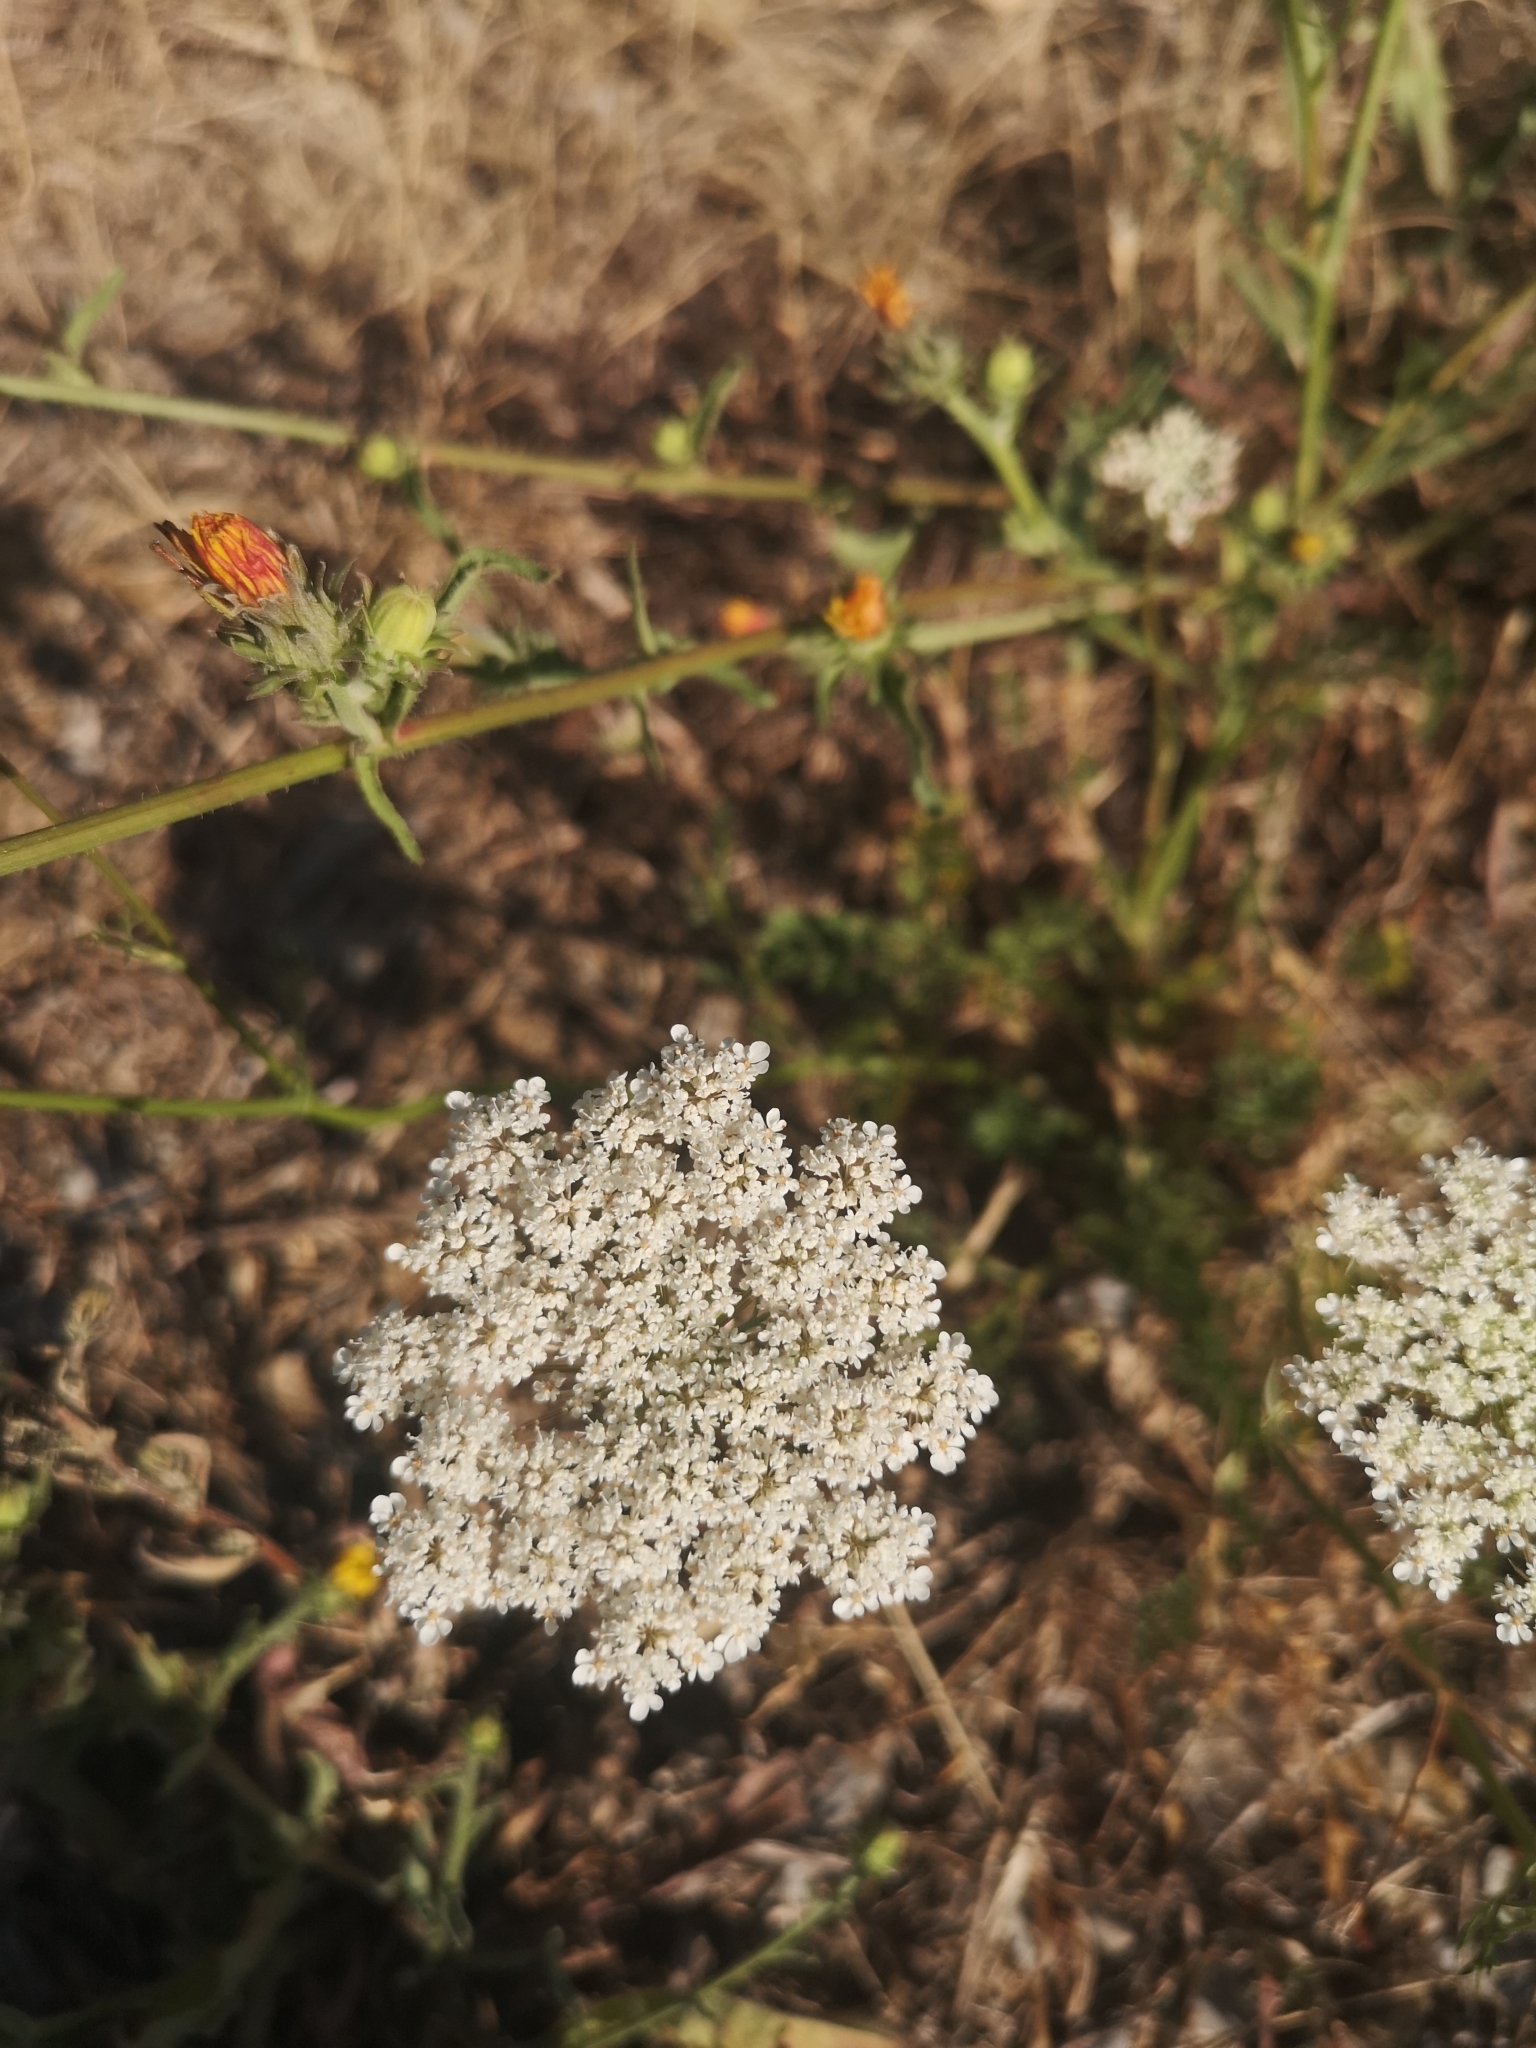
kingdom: Plantae
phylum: Tracheophyta
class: Magnoliopsida
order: Apiales
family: Apiaceae
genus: Daucus
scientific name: Daucus carota
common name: Wild carrot
